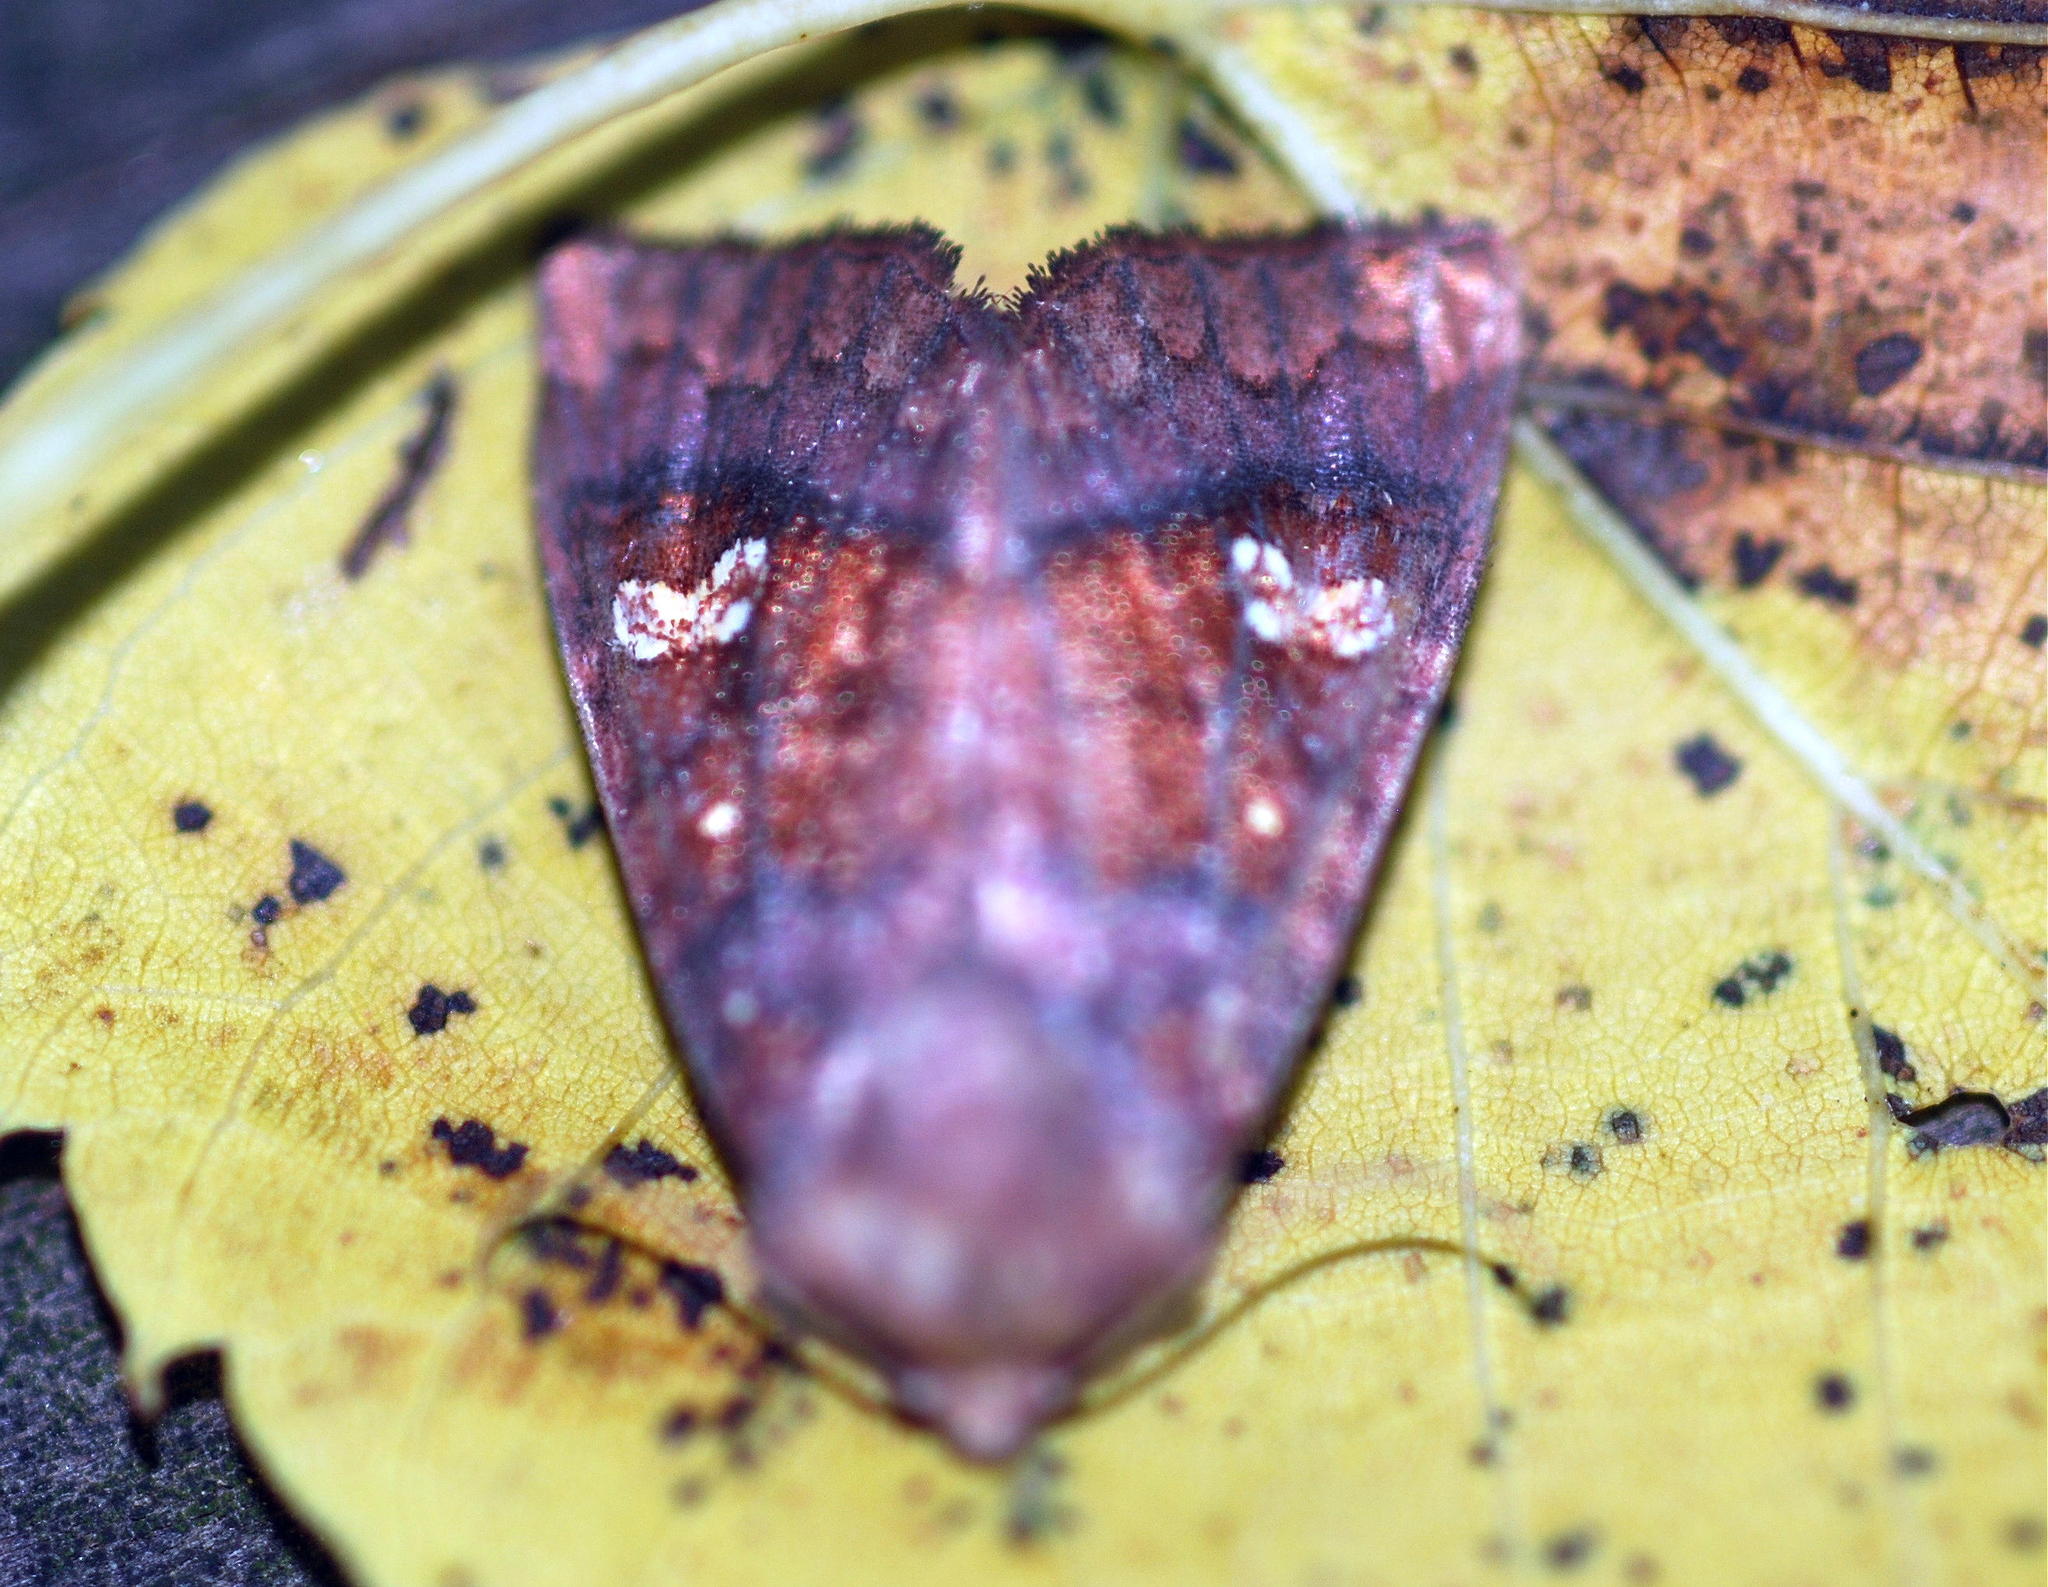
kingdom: Animalia
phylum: Arthropoda
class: Insecta
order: Lepidoptera
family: Noctuidae
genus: Parapamea
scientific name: Parapamea buffaloensis
